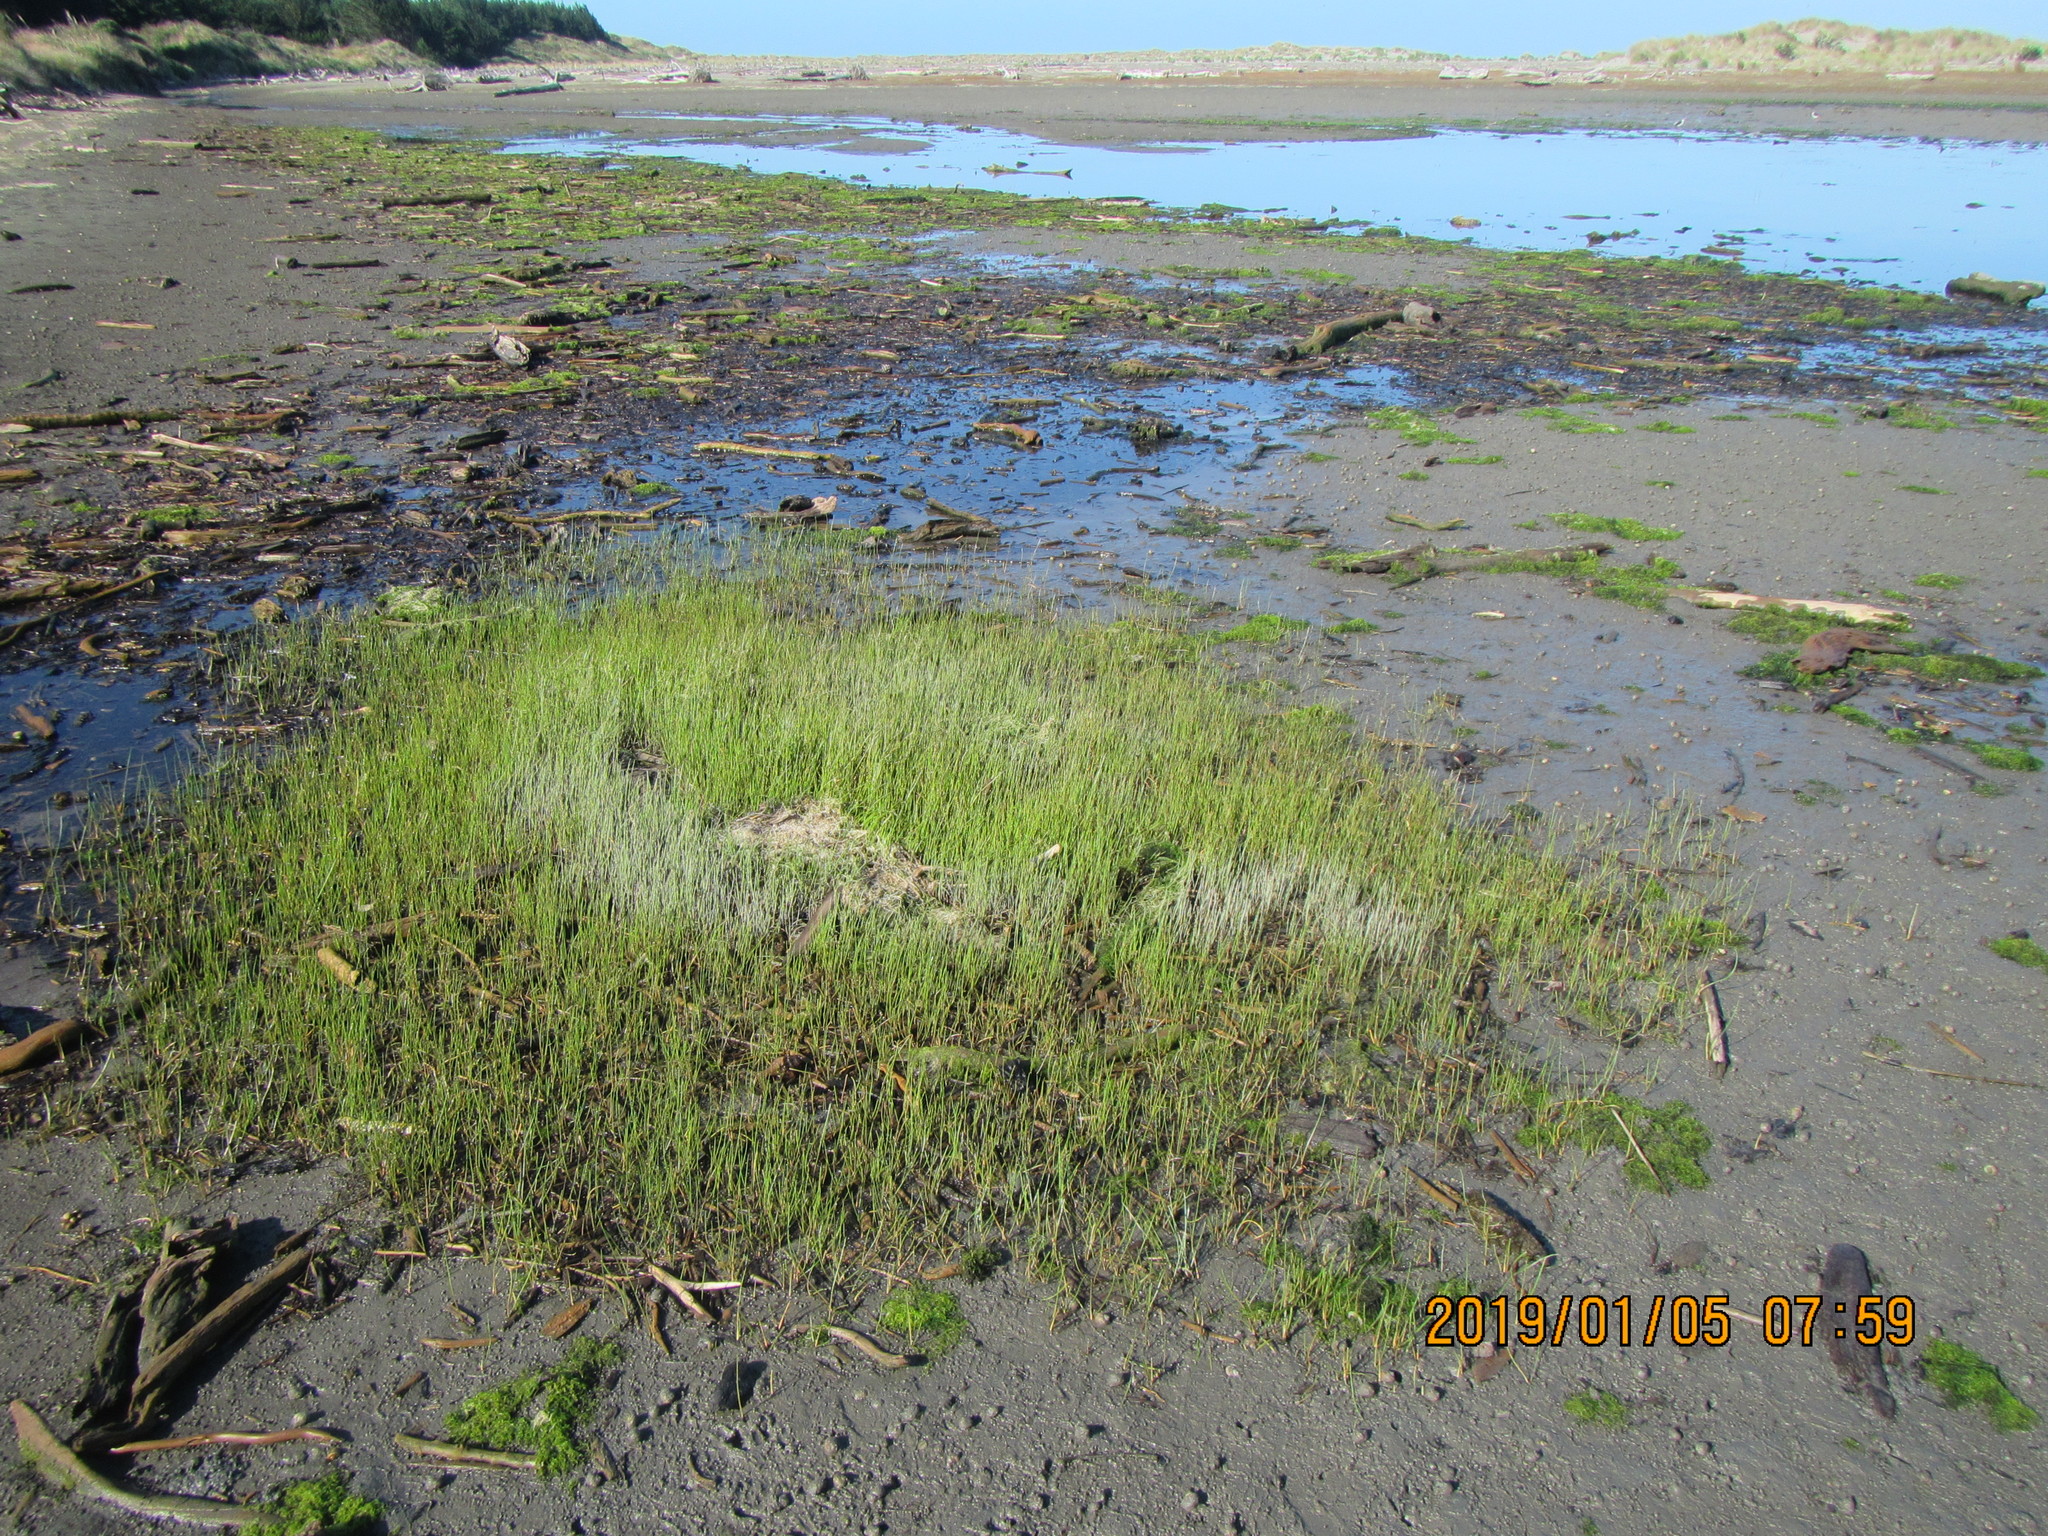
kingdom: Plantae
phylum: Tracheophyta
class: Liliopsida
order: Alismatales
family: Juncaginaceae
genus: Triglochin
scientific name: Triglochin striata
